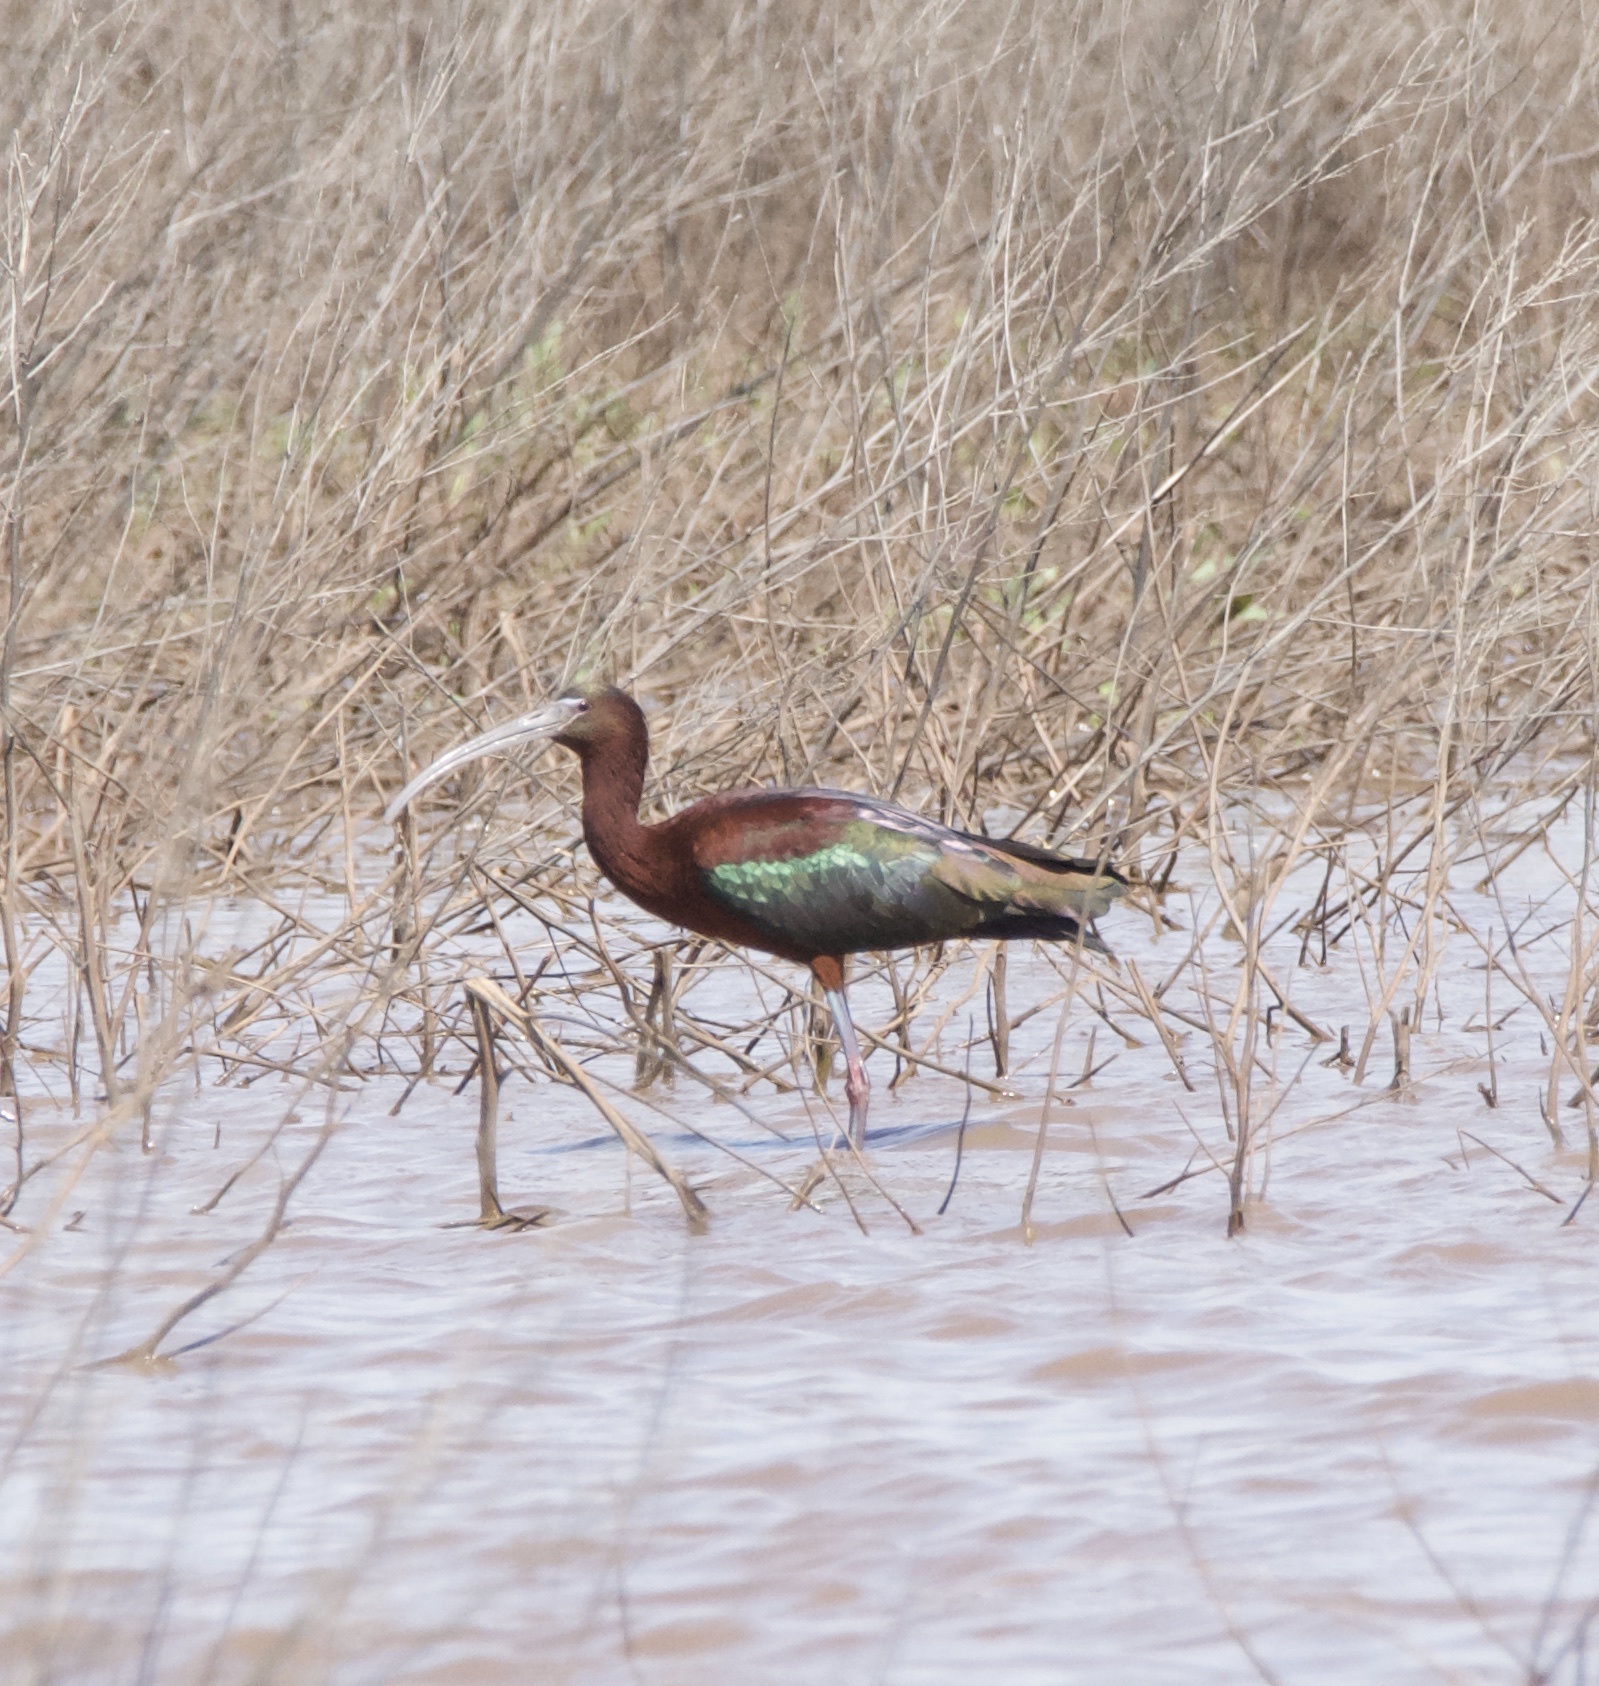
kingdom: Animalia
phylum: Chordata
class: Aves
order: Pelecaniformes
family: Threskiornithidae
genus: Plegadis
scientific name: Plegadis falcinellus
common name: Glossy ibis
